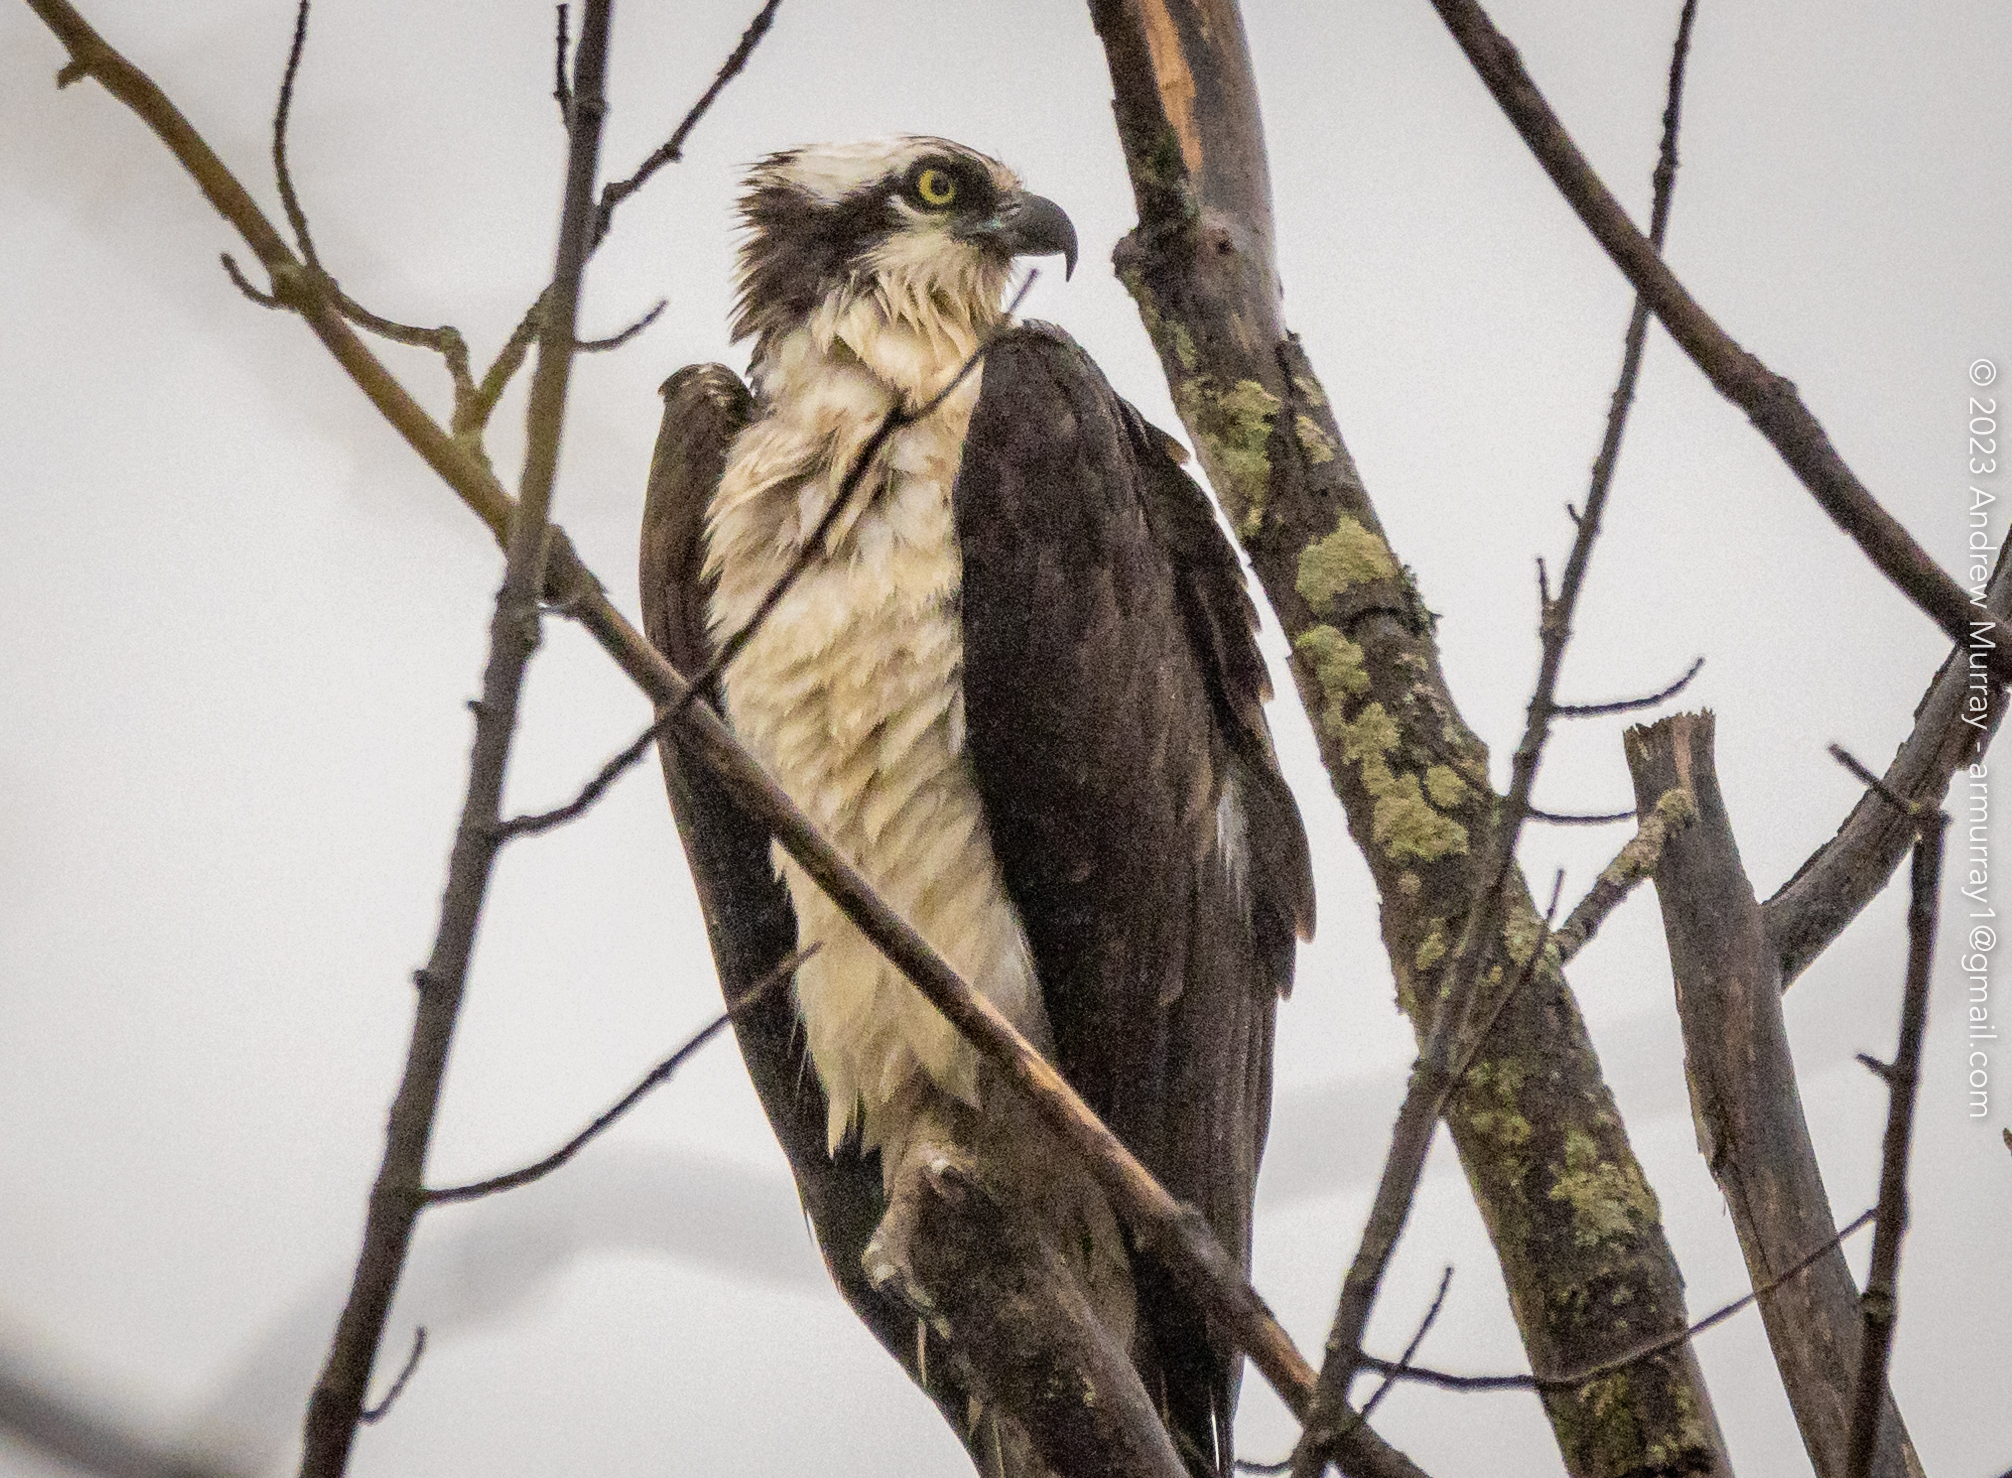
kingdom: Animalia
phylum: Chordata
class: Aves
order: Accipitriformes
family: Pandionidae
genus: Pandion
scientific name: Pandion haliaetus
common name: Osprey
